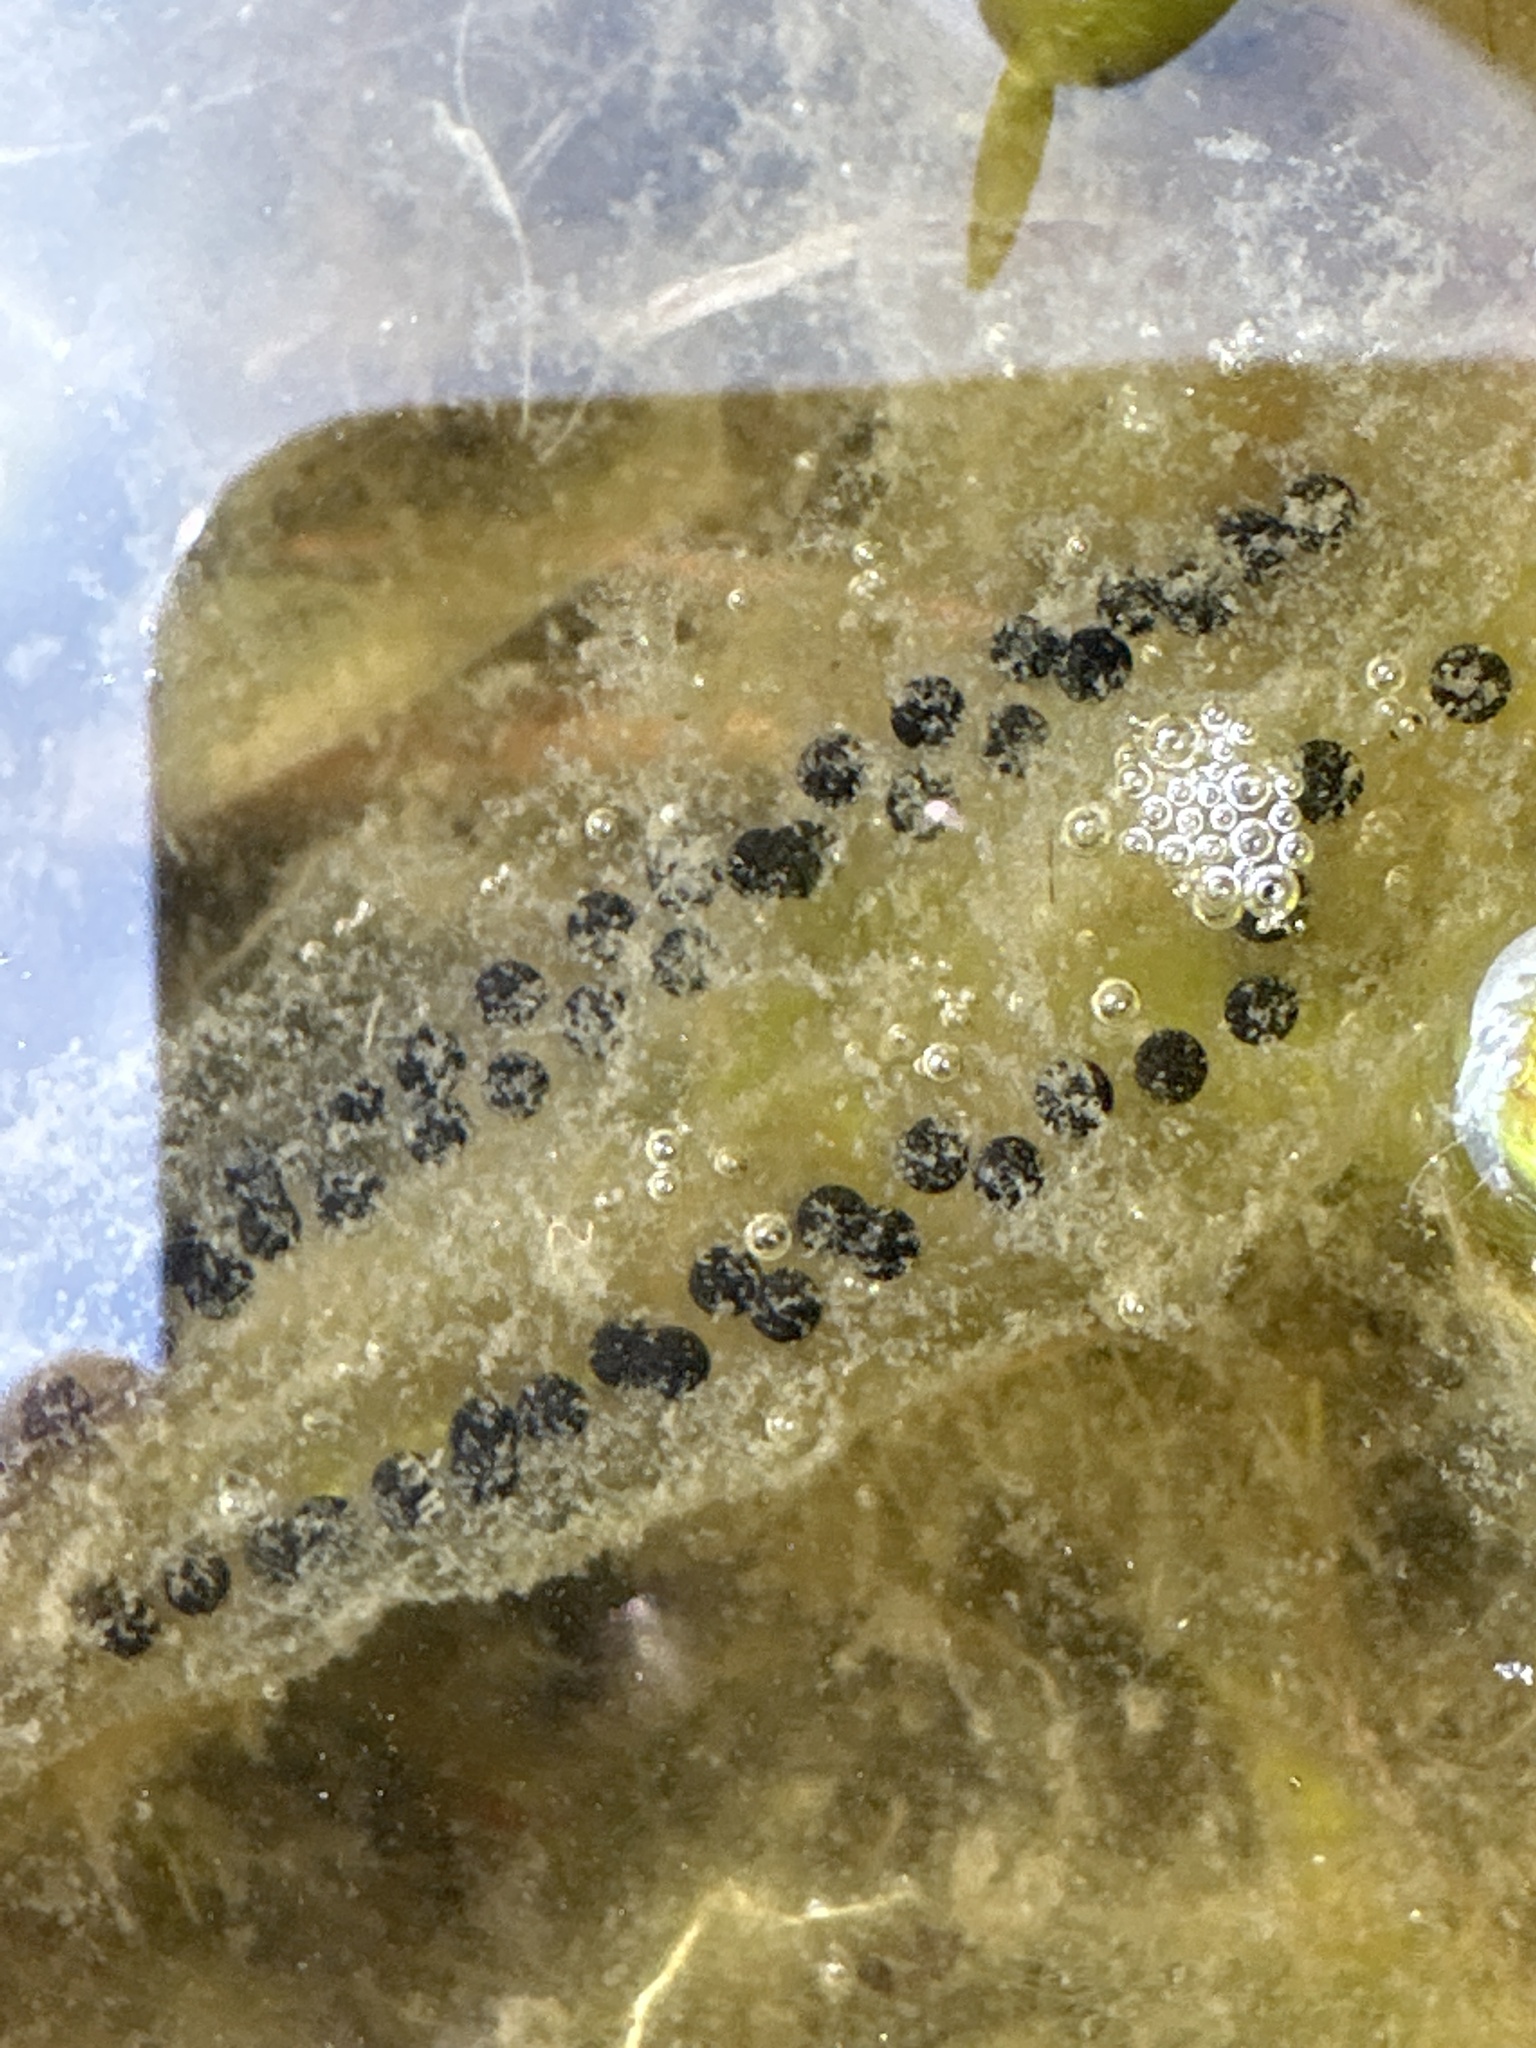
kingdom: Animalia
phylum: Chordata
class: Amphibia
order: Anura
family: Bufonidae
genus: Bufo
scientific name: Bufo bufo
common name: Common toad
